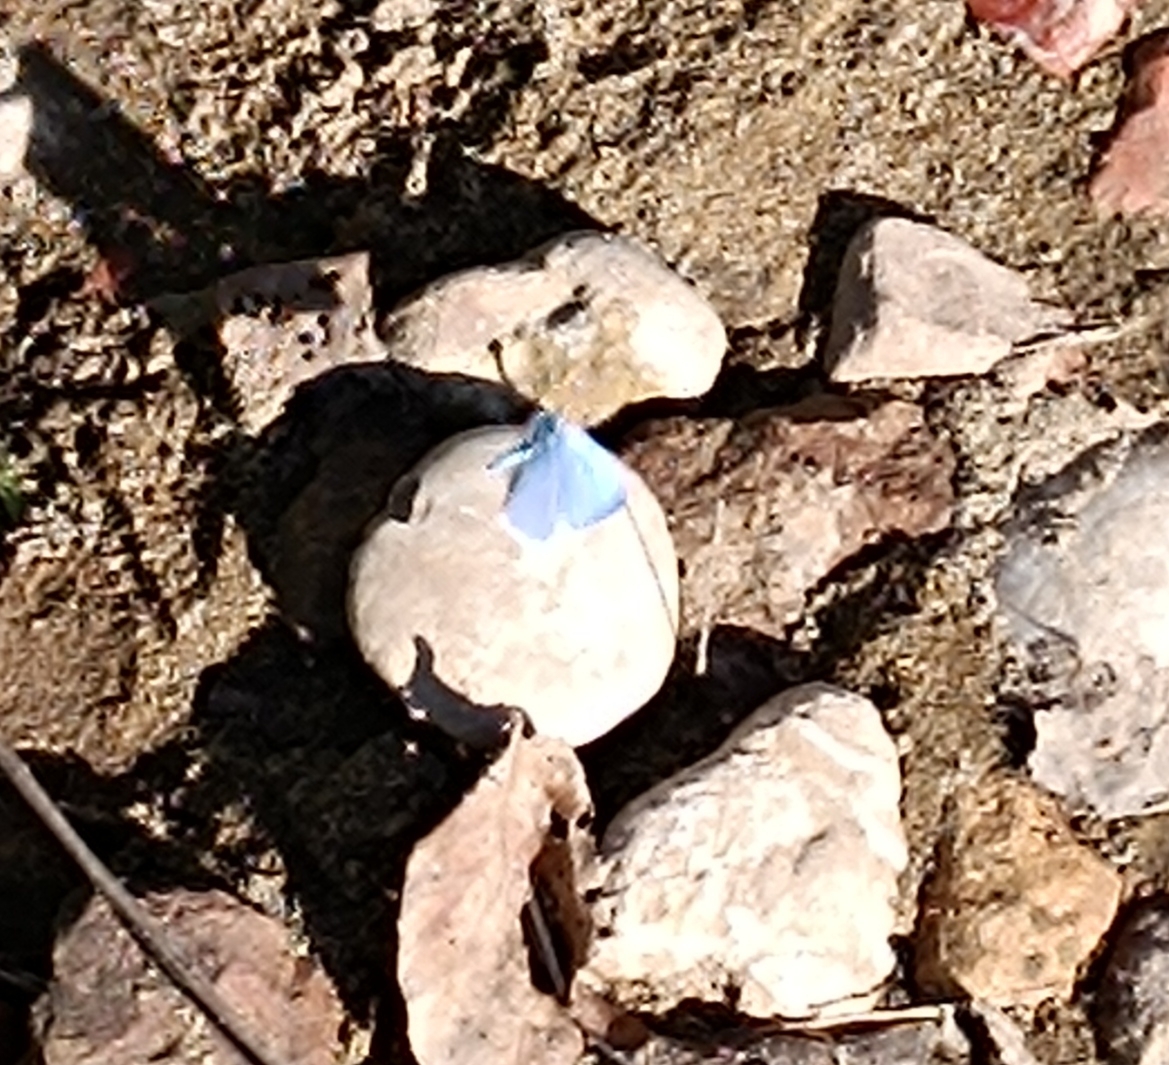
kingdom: Animalia
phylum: Arthropoda
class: Insecta
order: Lepidoptera
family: Lycaenidae
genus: Celastrina
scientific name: Celastrina argiolus
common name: Holly blue
